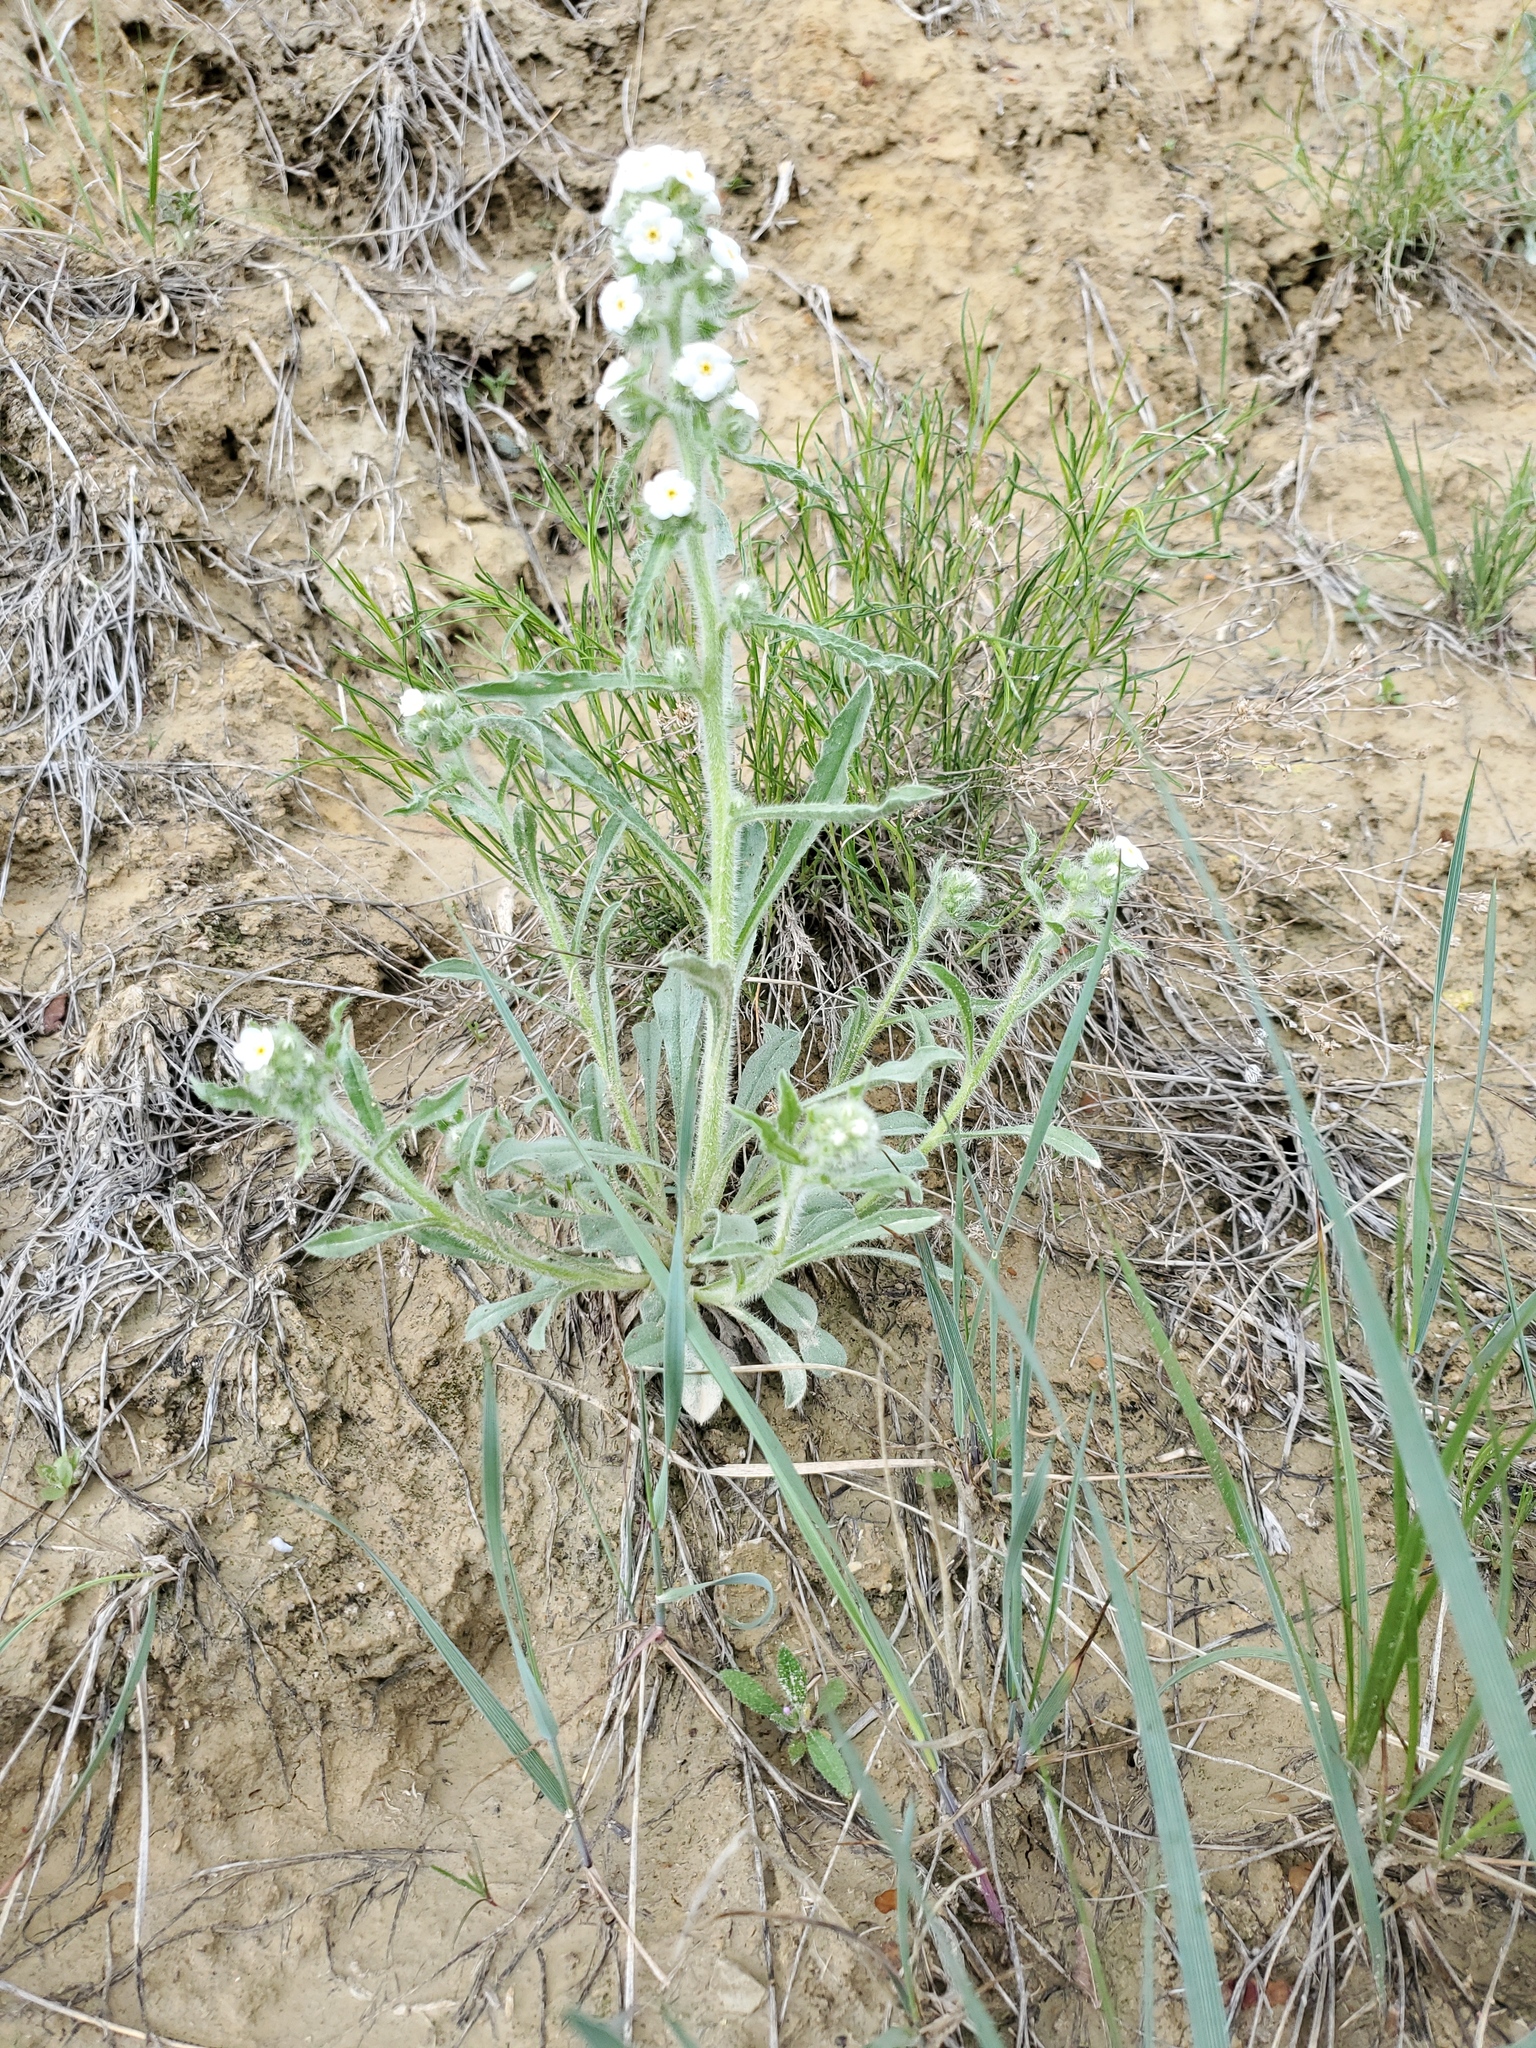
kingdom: Plantae
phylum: Tracheophyta
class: Magnoliopsida
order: Boraginales
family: Boraginaceae
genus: Oreocarya
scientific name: Oreocarya glomerata
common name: Macoun's cryptantha
